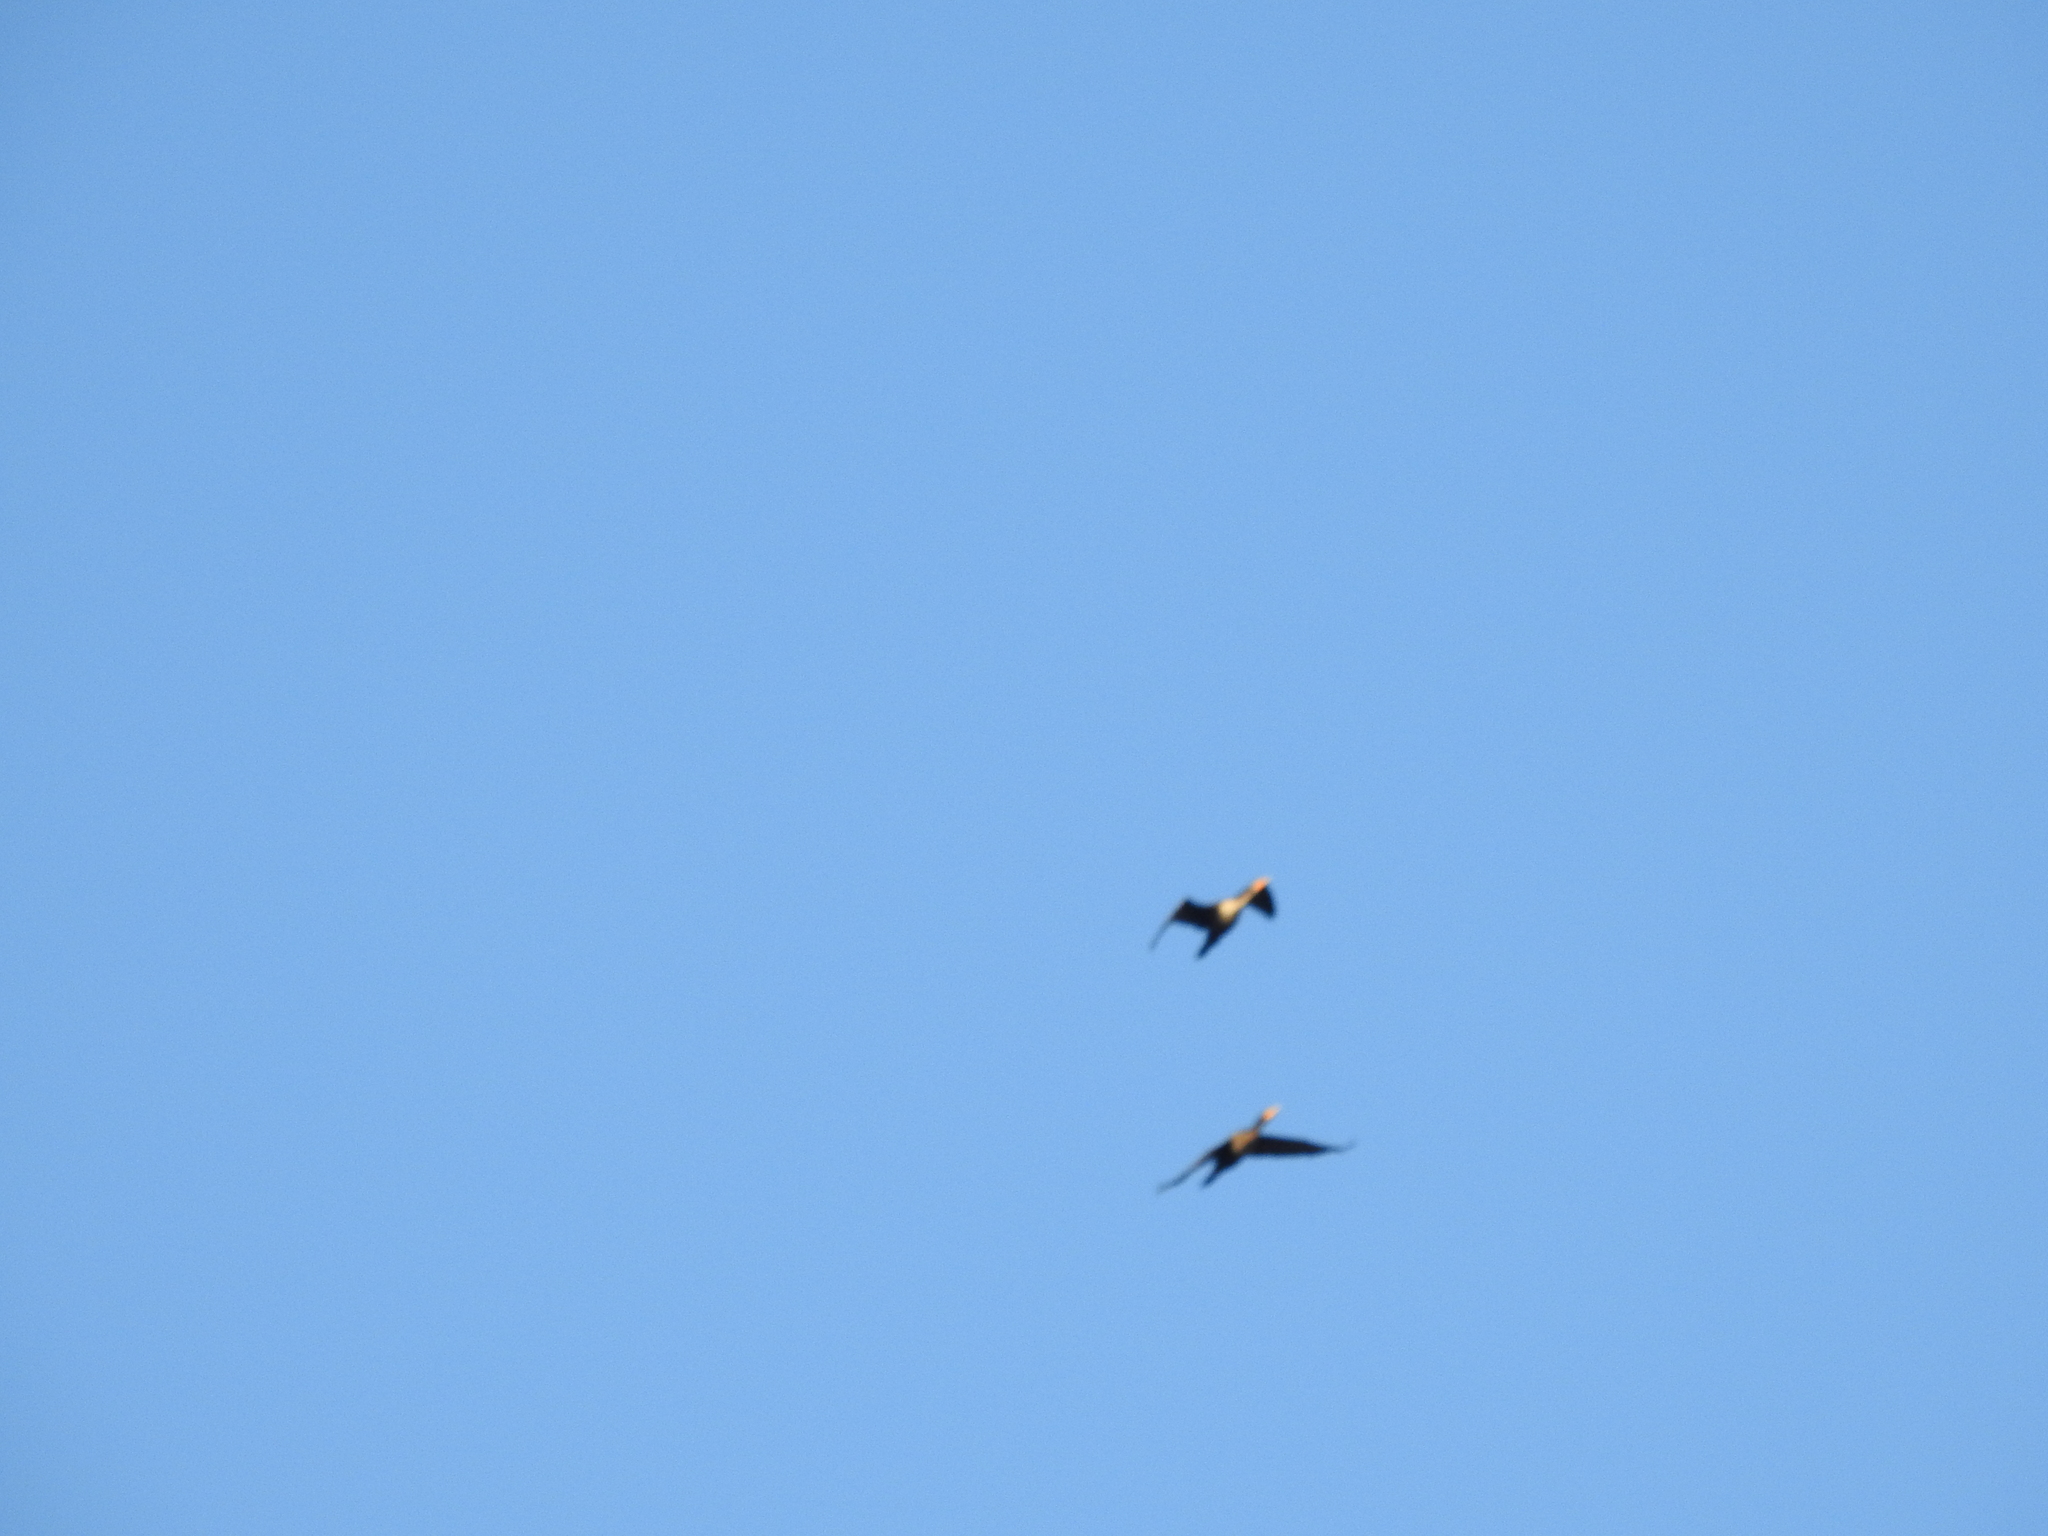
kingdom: Animalia
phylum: Chordata
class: Aves
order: Suliformes
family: Phalacrocoracidae
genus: Phalacrocorax
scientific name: Phalacrocorax auritus
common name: Double-crested cormorant
